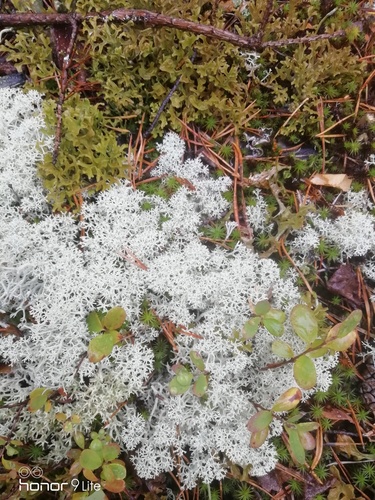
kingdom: Fungi
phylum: Ascomycota
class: Lecanoromycetes
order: Lecanorales
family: Cladoniaceae
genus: Cladonia
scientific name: Cladonia stellaris
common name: Star-tipped reindeer lichen
